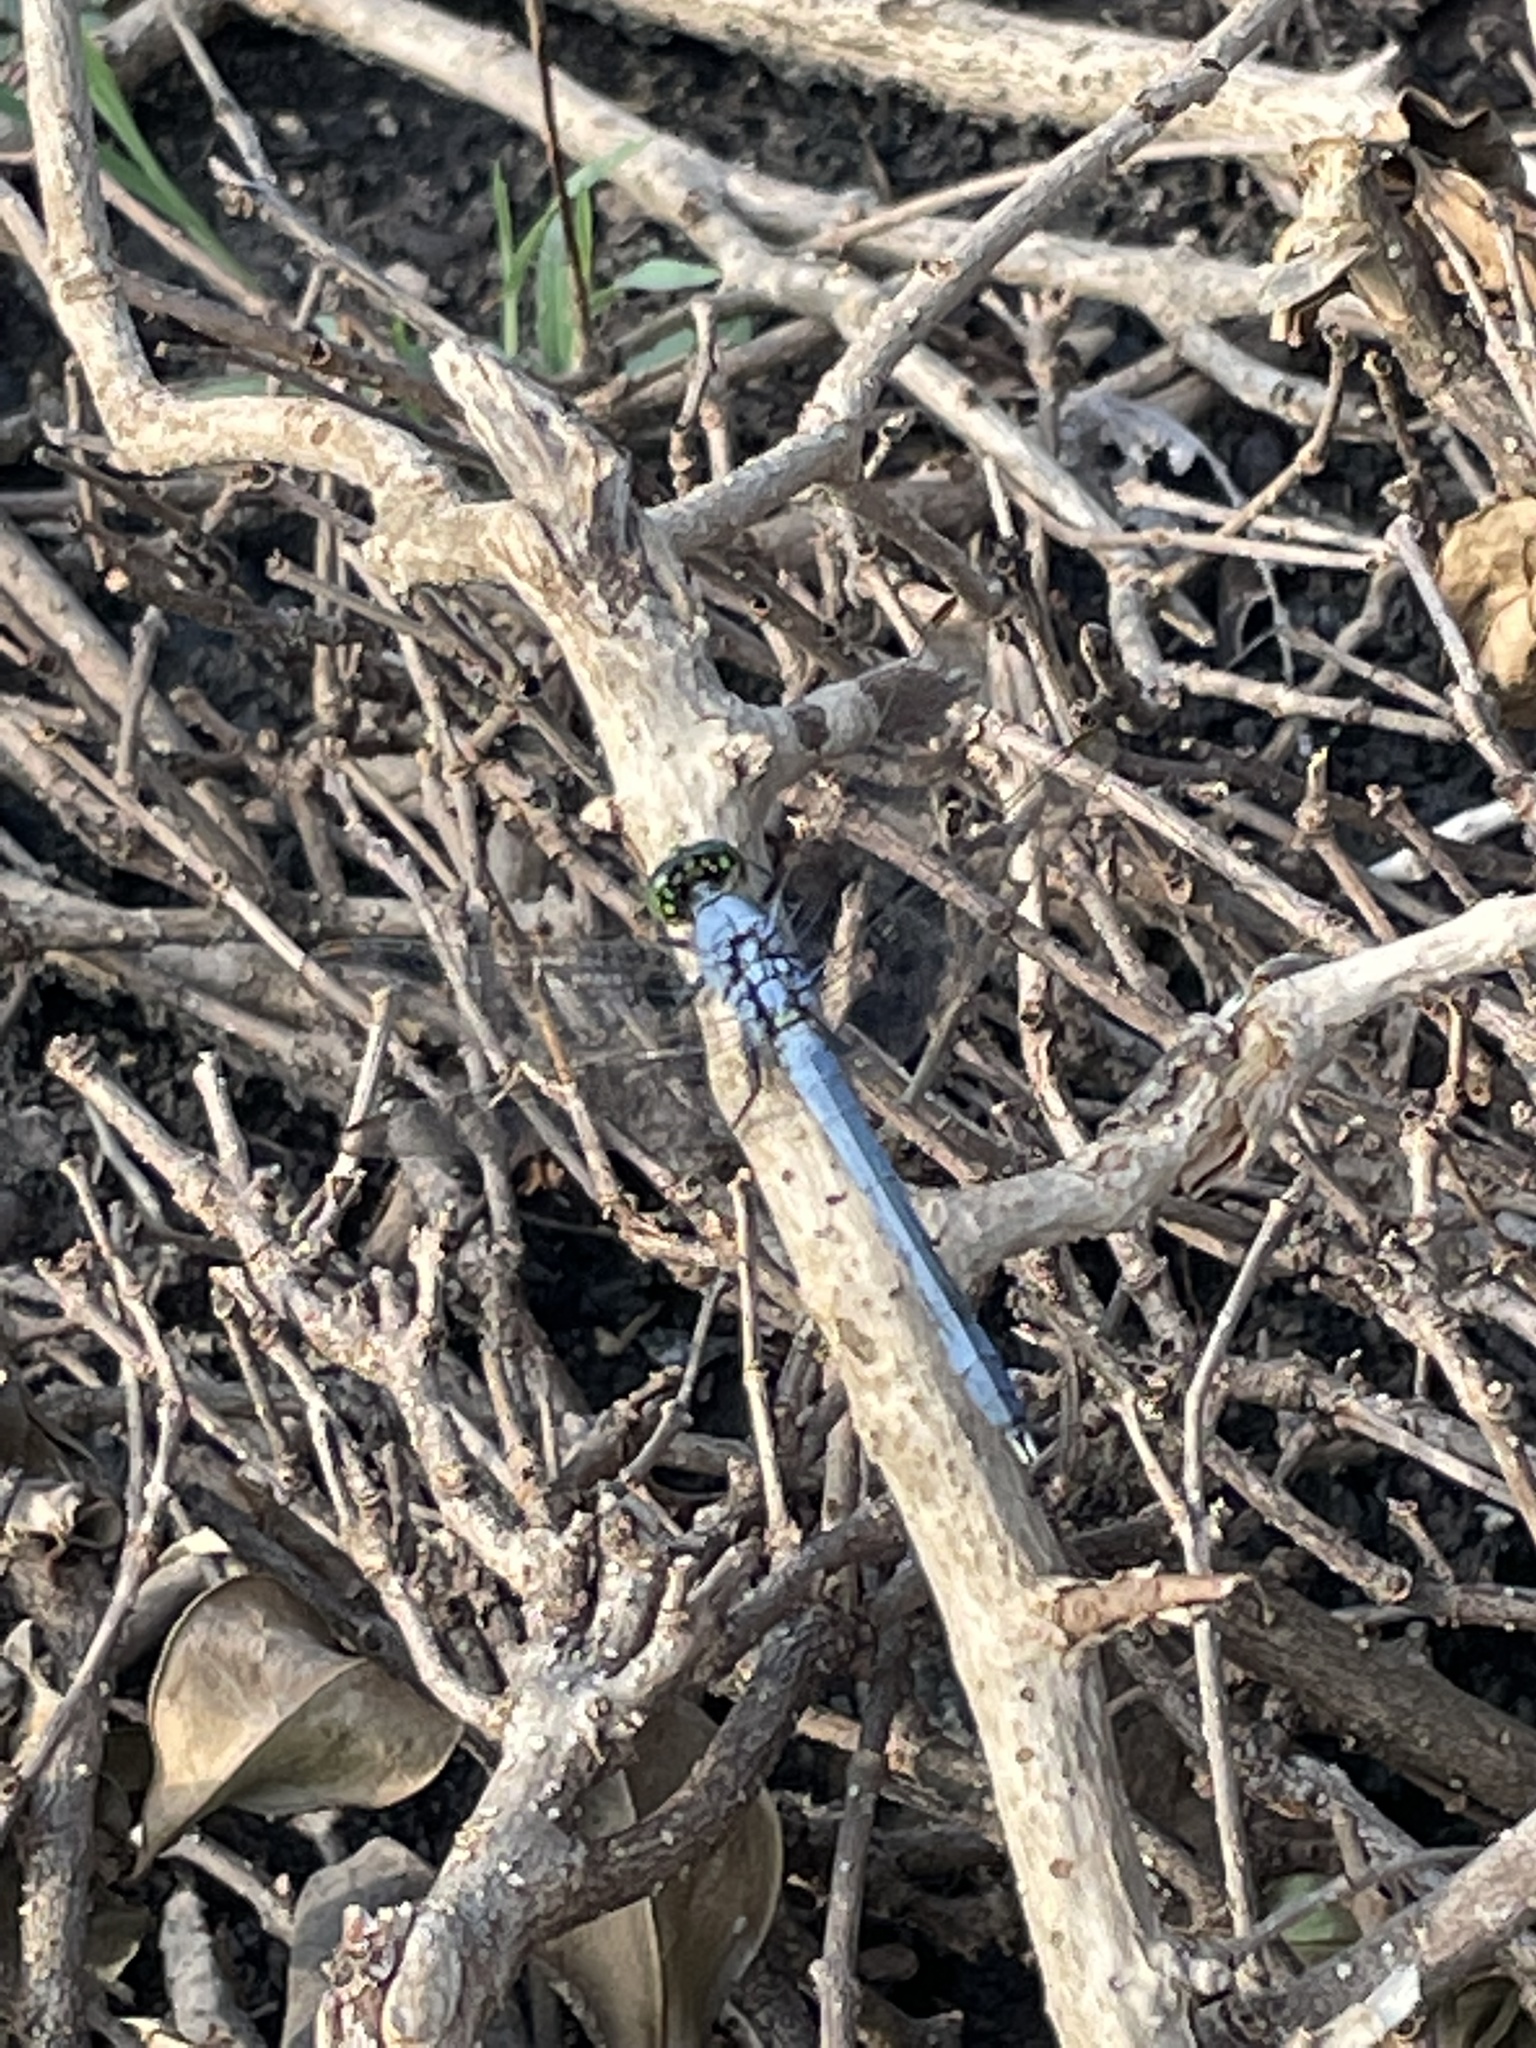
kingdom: Animalia
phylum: Arthropoda
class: Insecta
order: Odonata
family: Libellulidae
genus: Erythemis
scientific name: Erythemis simplicicollis
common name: Eastern pondhawk
